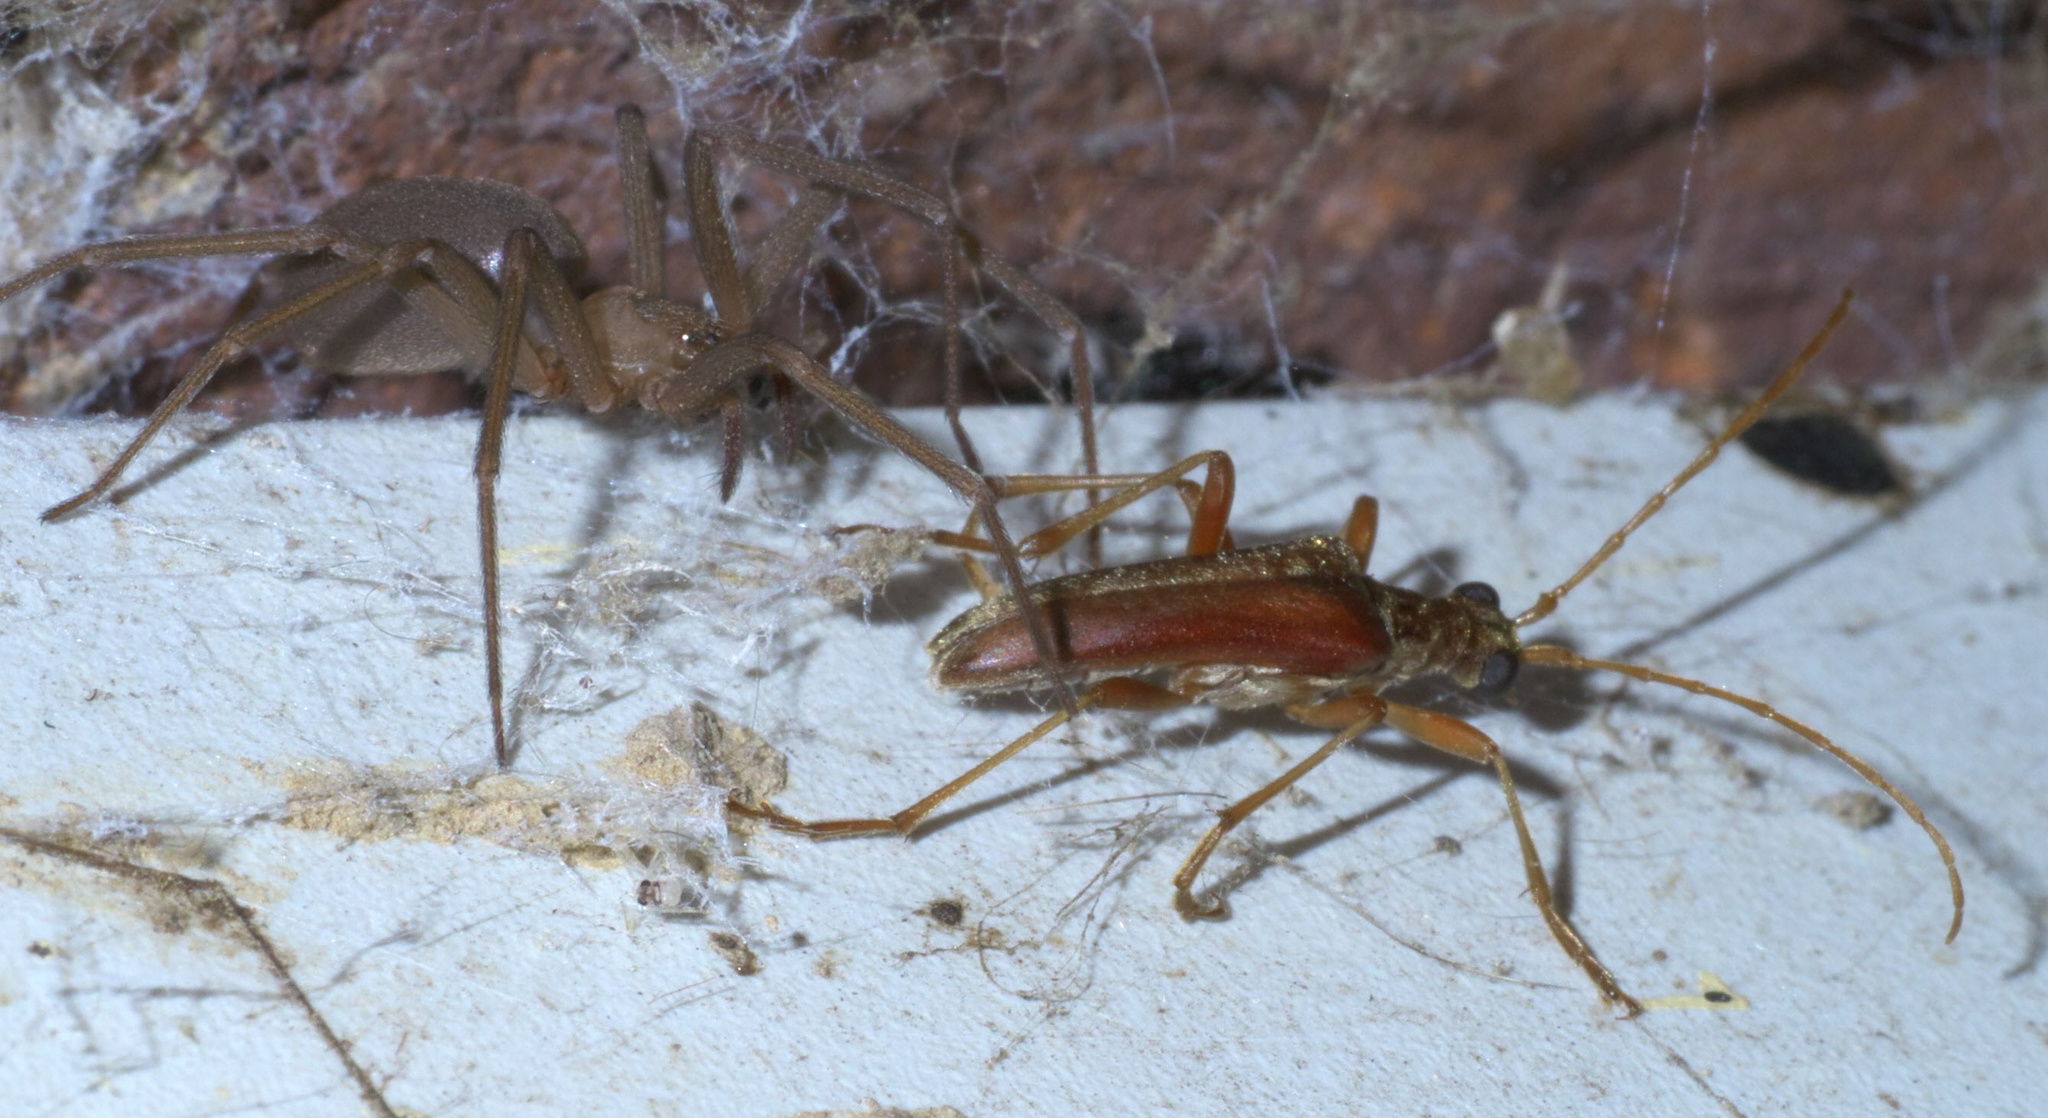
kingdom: Animalia
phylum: Arthropoda
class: Arachnida
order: Araneae
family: Sicariidae
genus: Loxosceles
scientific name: Loxosceles reclusa
